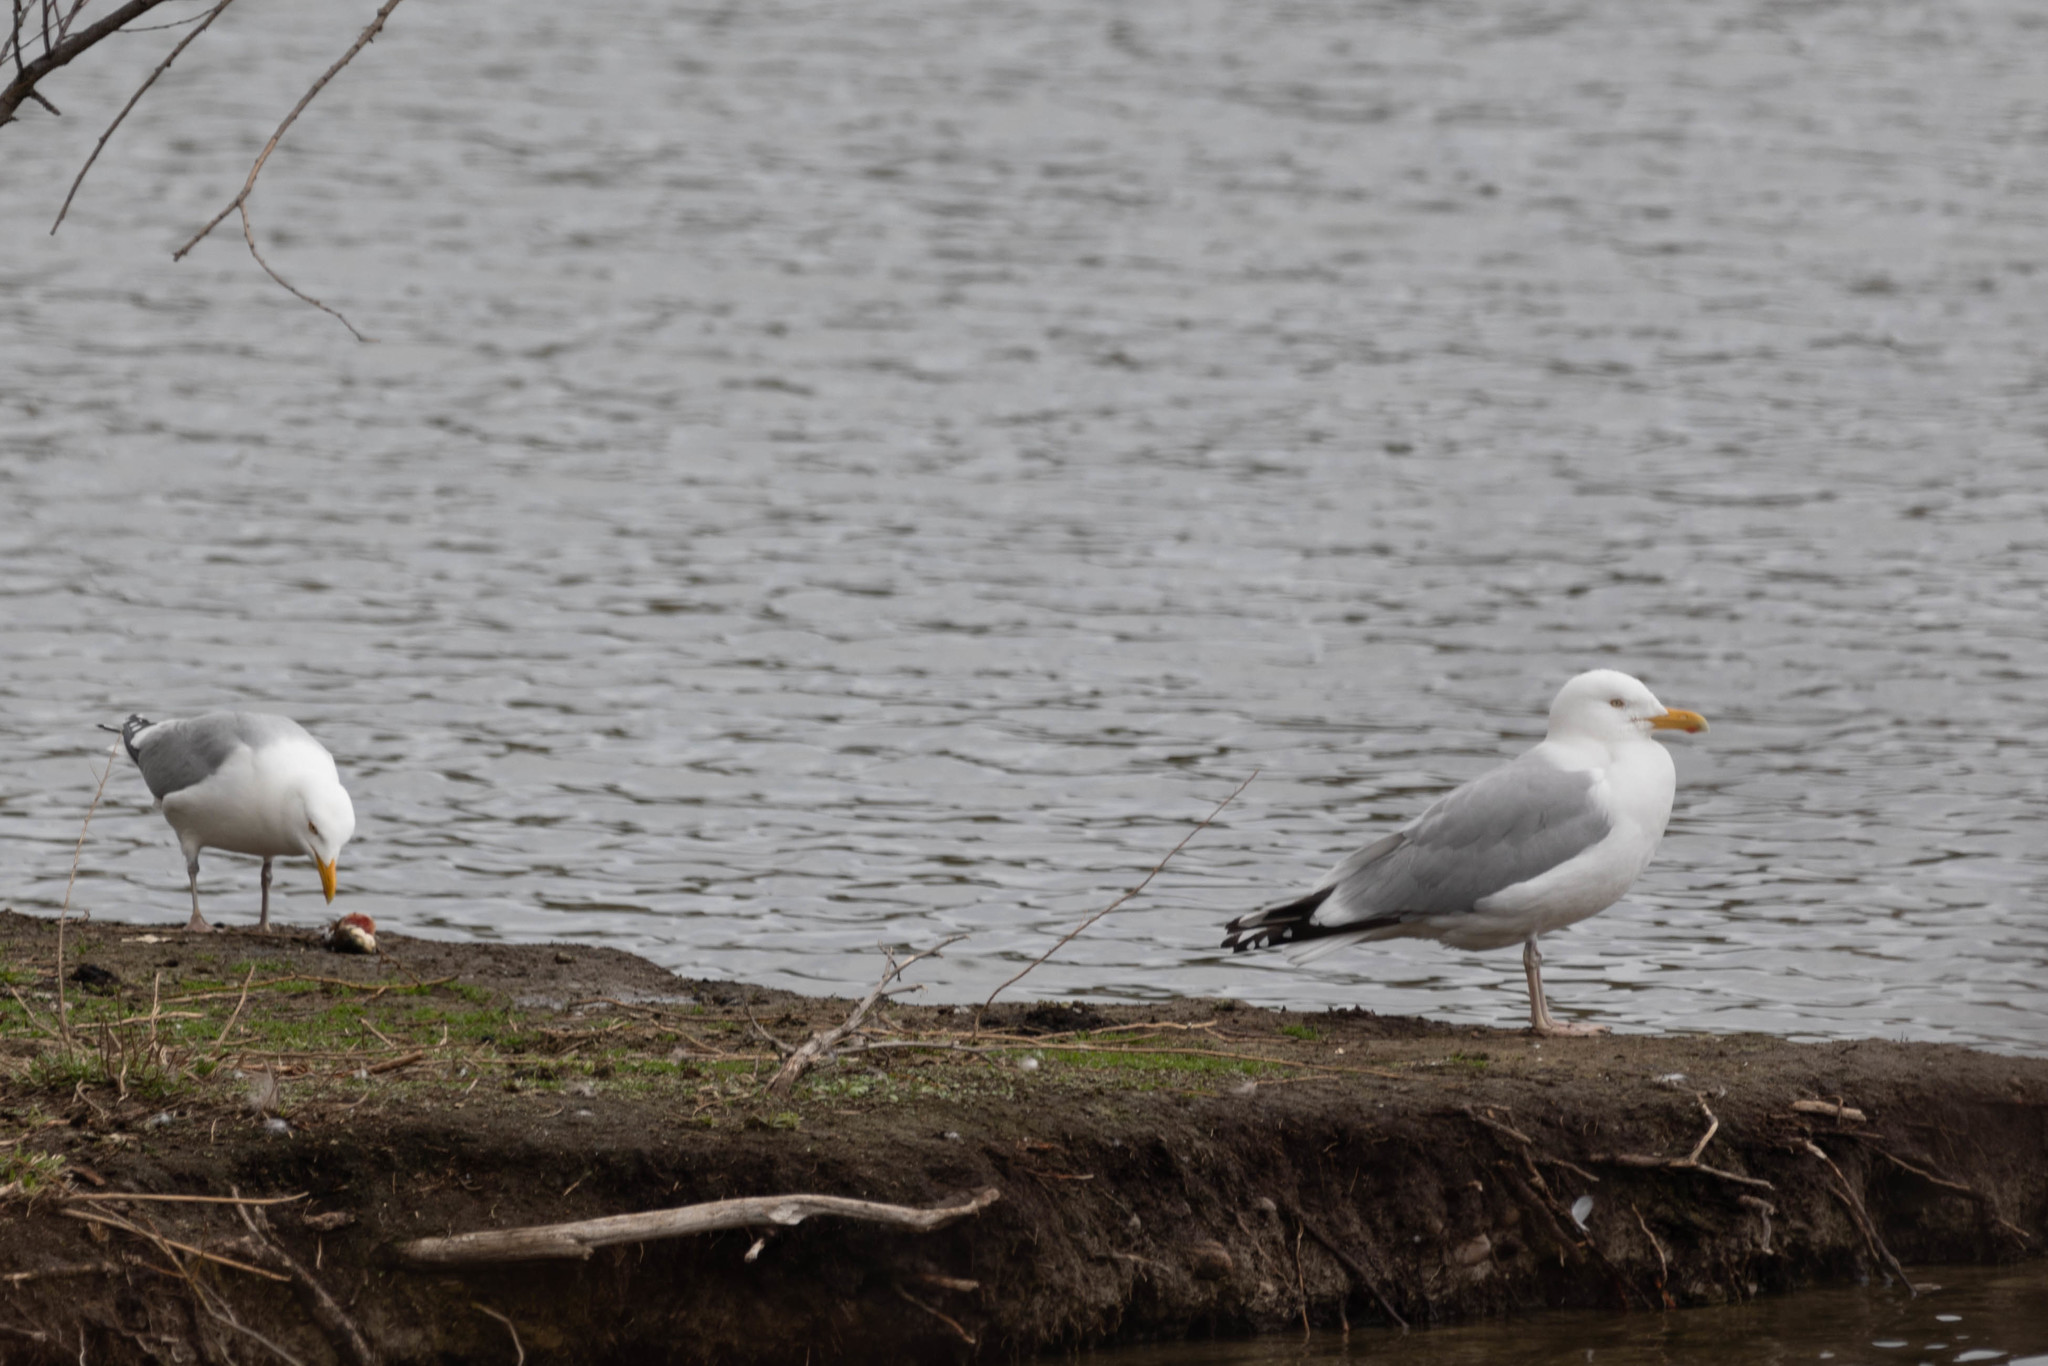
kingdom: Animalia
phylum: Chordata
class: Aves
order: Charadriiformes
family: Laridae
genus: Larus
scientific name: Larus argentatus
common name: Herring gull
